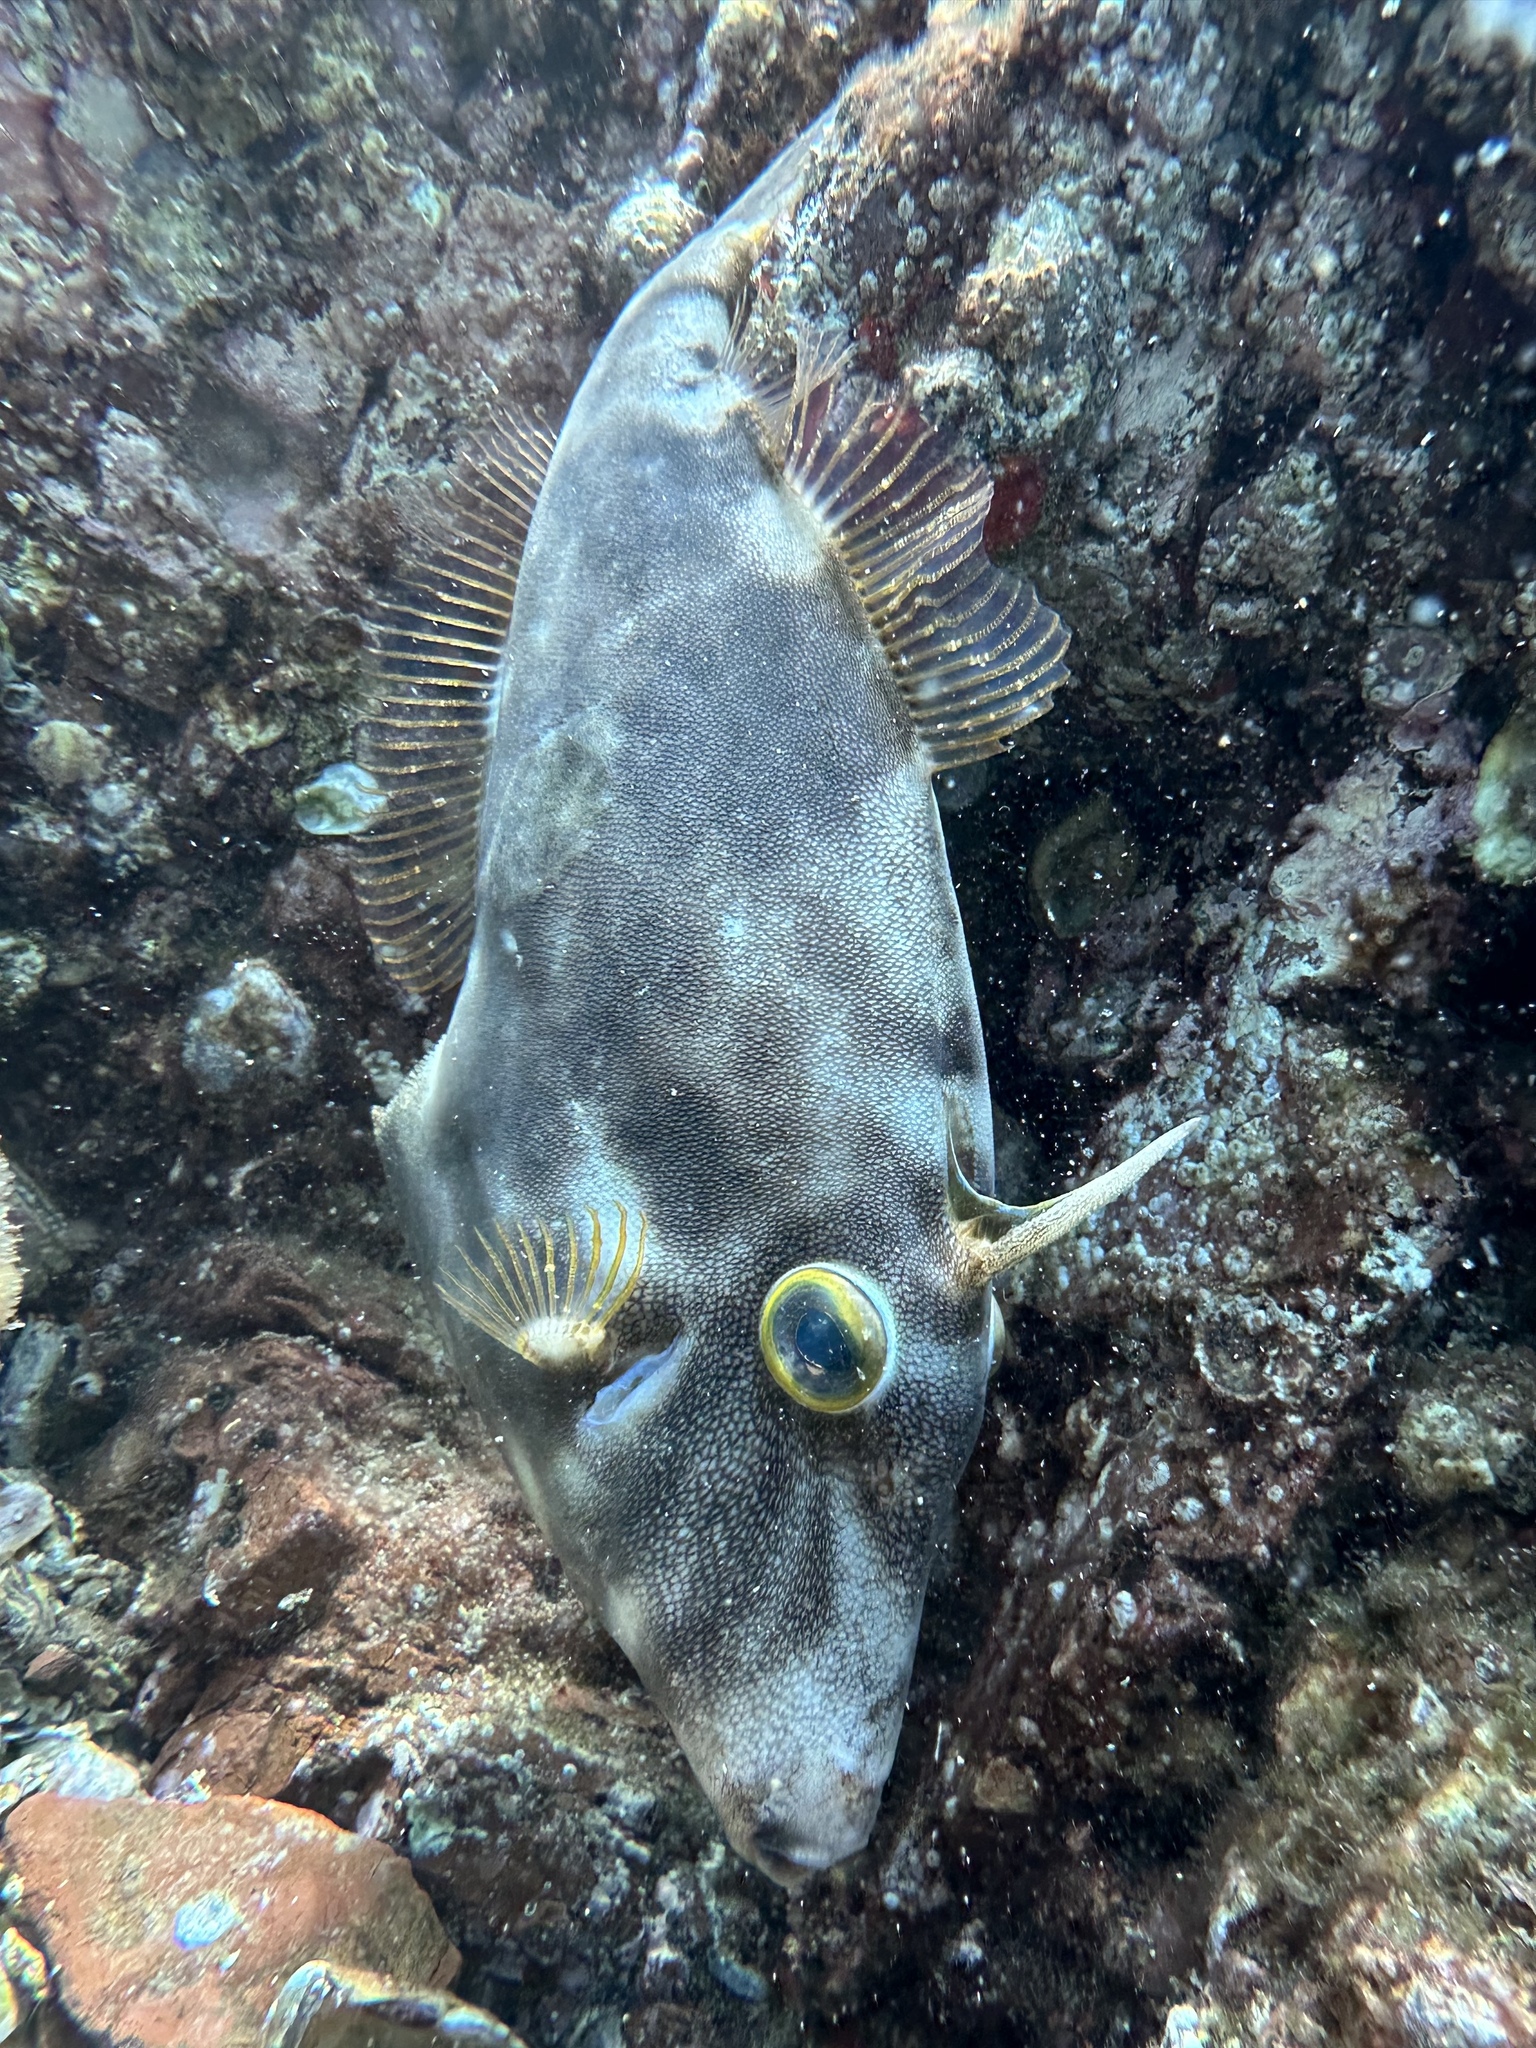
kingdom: Animalia
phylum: Chordata
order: Tetraodontiformes
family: Monacanthidae
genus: Meuschenia
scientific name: Meuschenia scaber
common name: Cosmopolitan leatherjacket
